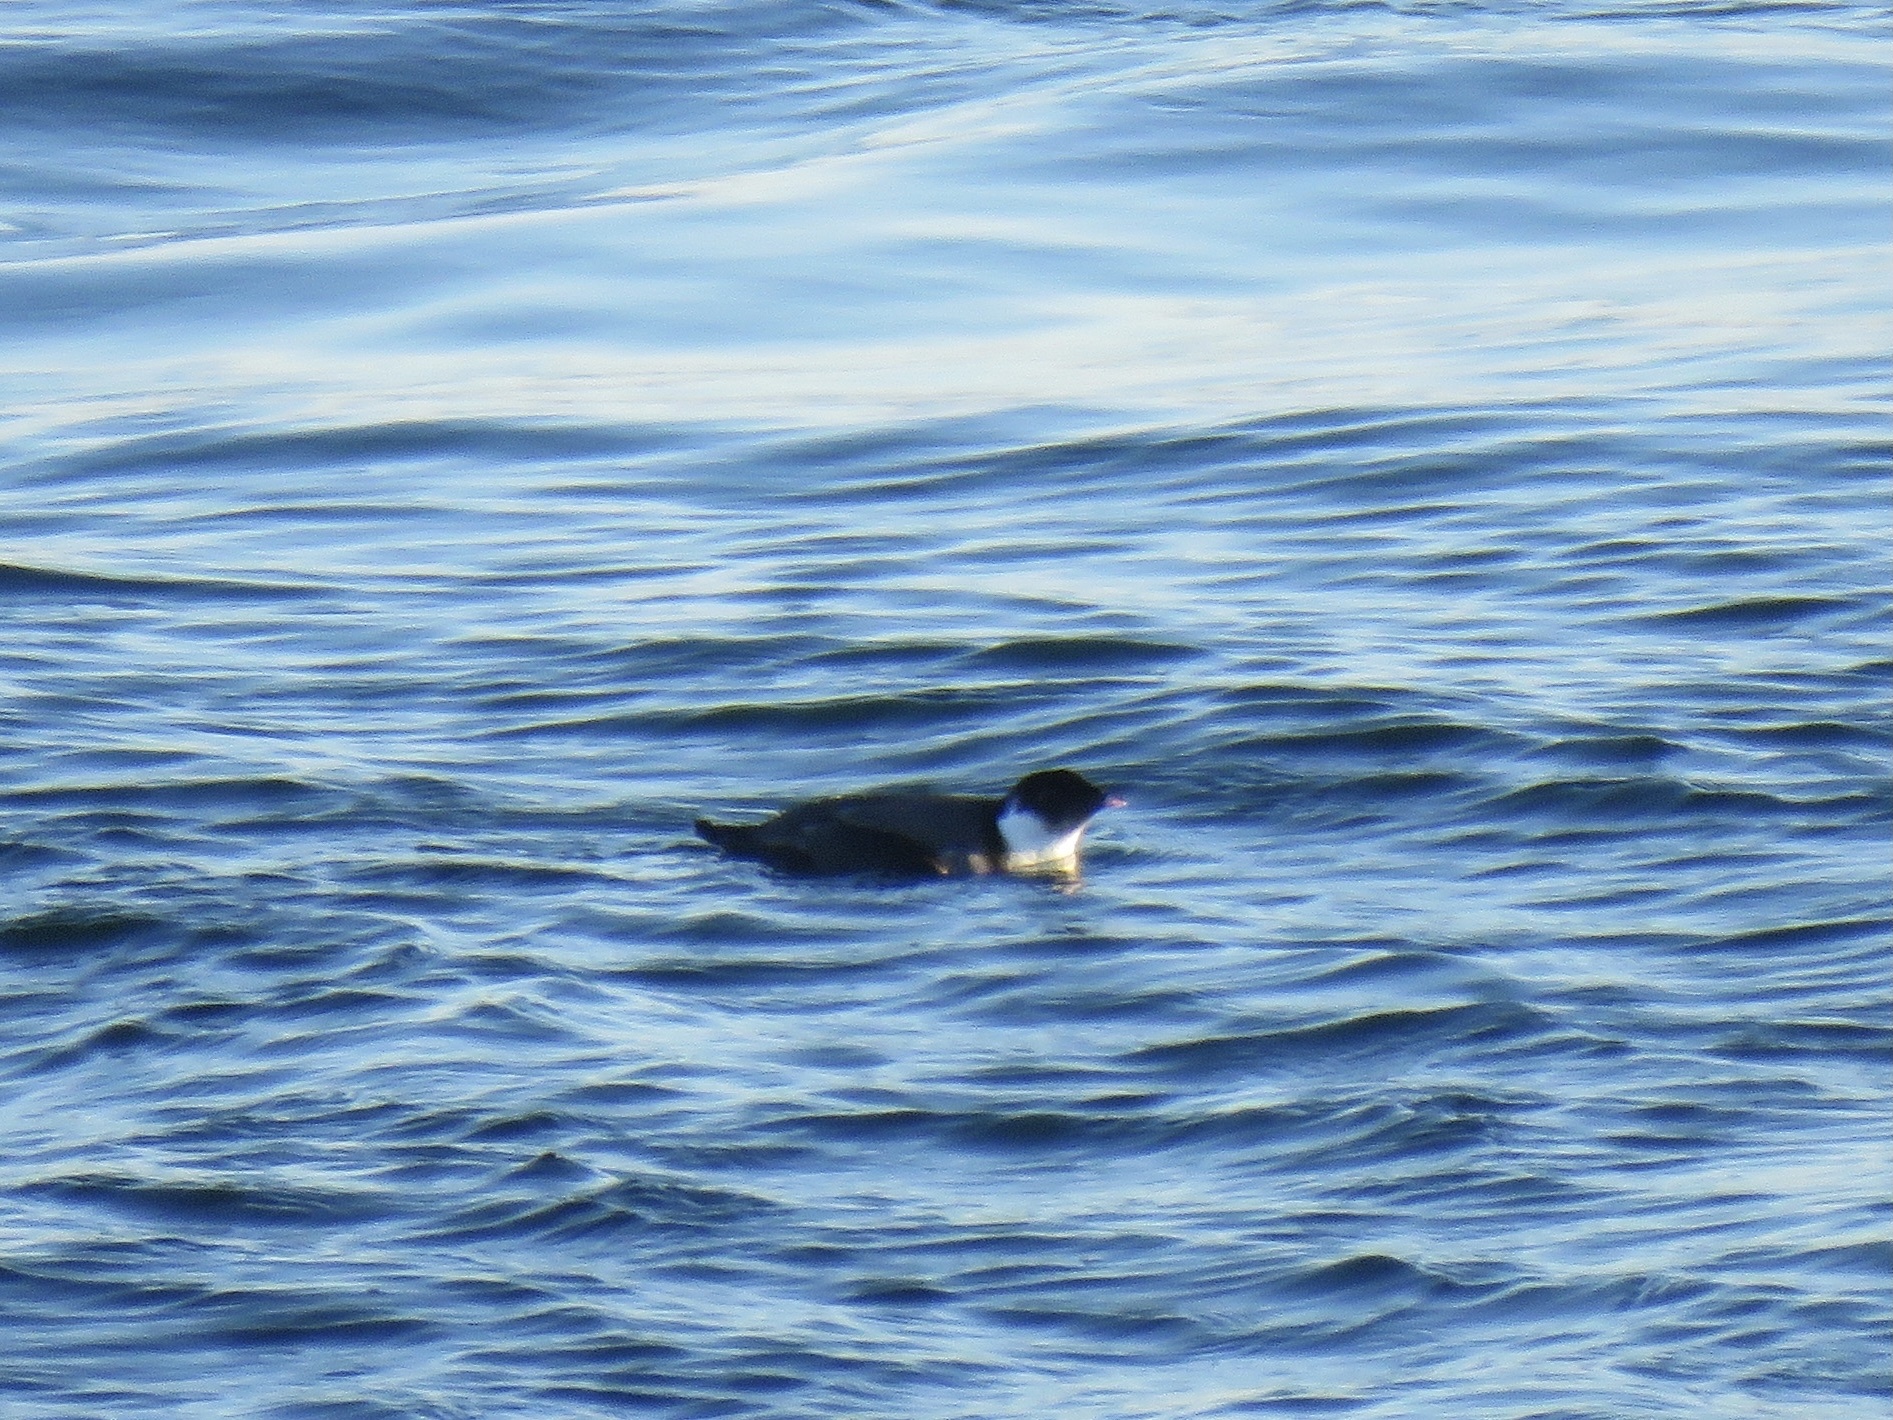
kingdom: Animalia
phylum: Chordata
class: Aves
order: Charadriiformes
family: Alcidae
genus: Synthliboramphus
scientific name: Synthliboramphus antiquus
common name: Ancient murrelet
